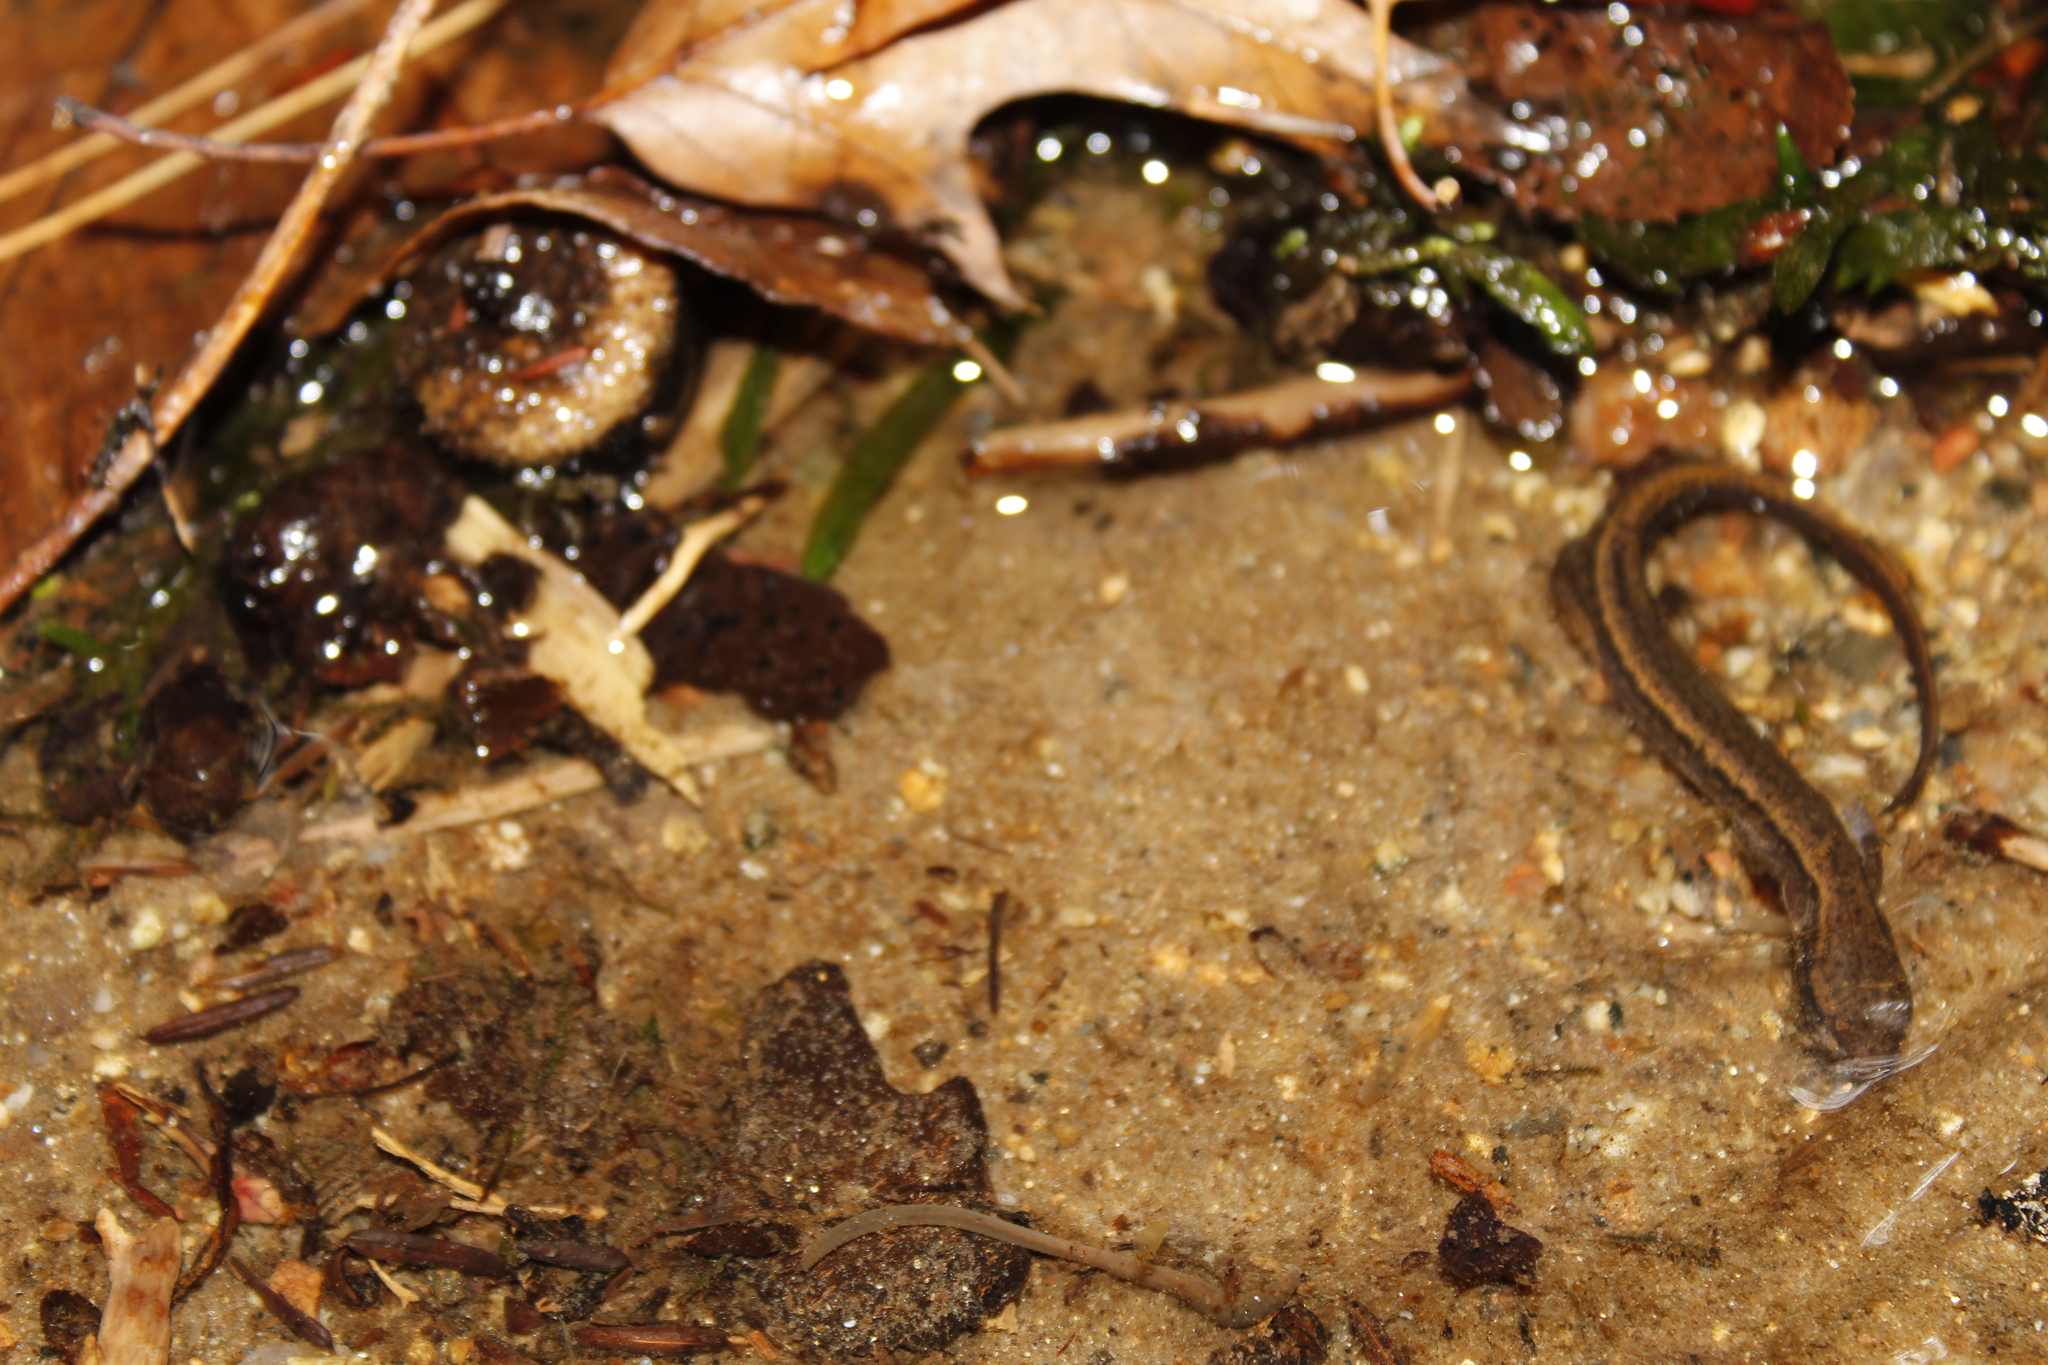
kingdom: Animalia
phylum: Chordata
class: Amphibia
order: Caudata
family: Plethodontidae
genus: Eurycea
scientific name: Eurycea bislineata
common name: Northern two-lined salamander
